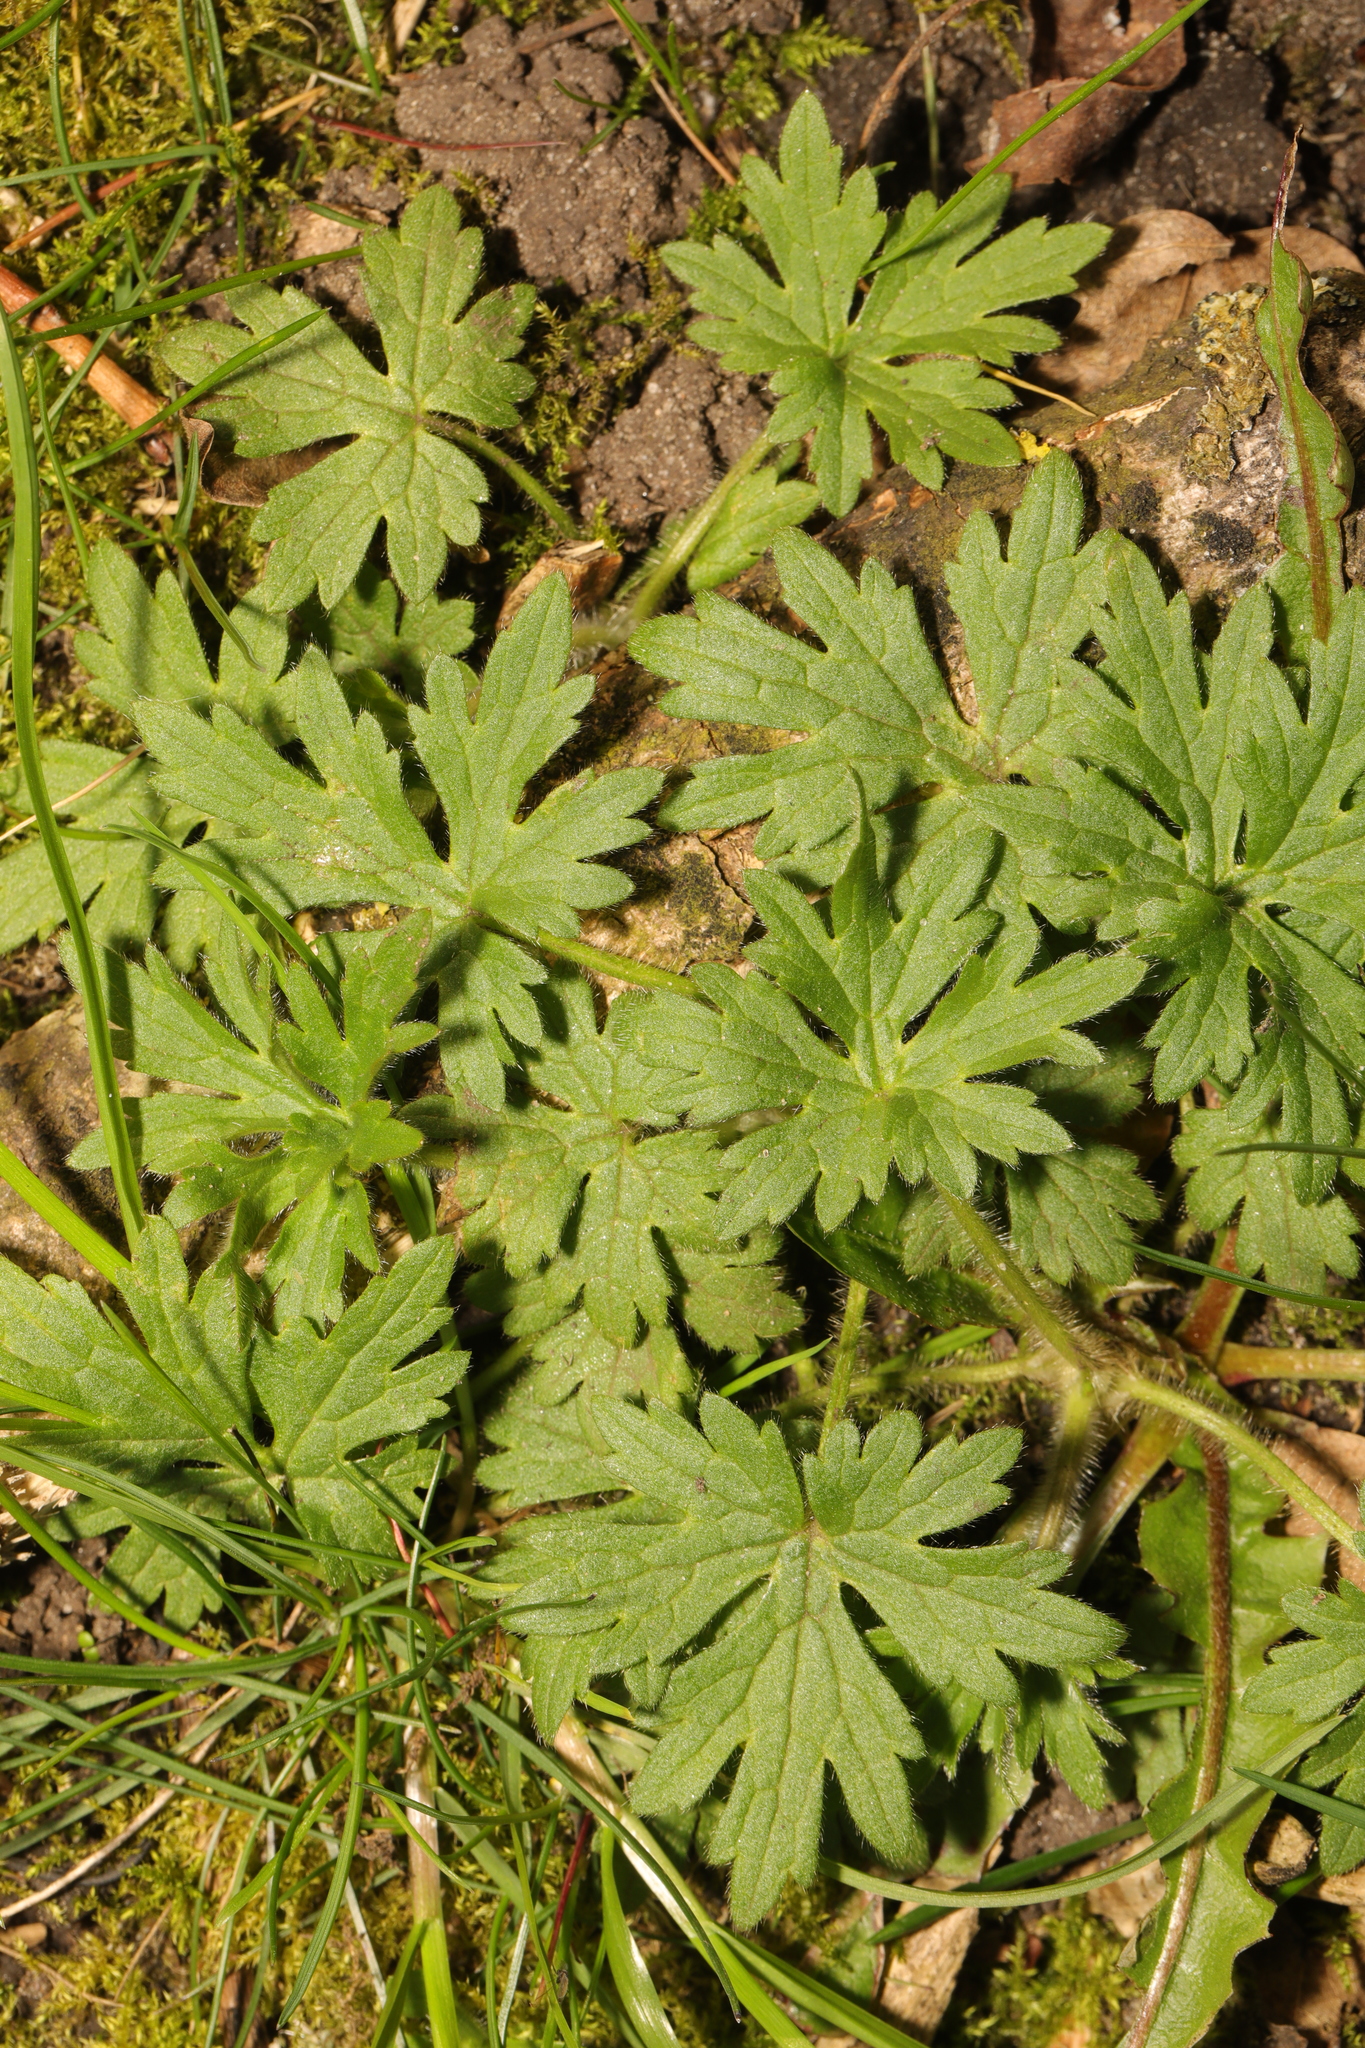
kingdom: Plantae
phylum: Tracheophyta
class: Magnoliopsida
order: Ranunculales
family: Ranunculaceae
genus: Ranunculus
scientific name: Ranunculus acris
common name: Meadow buttercup
